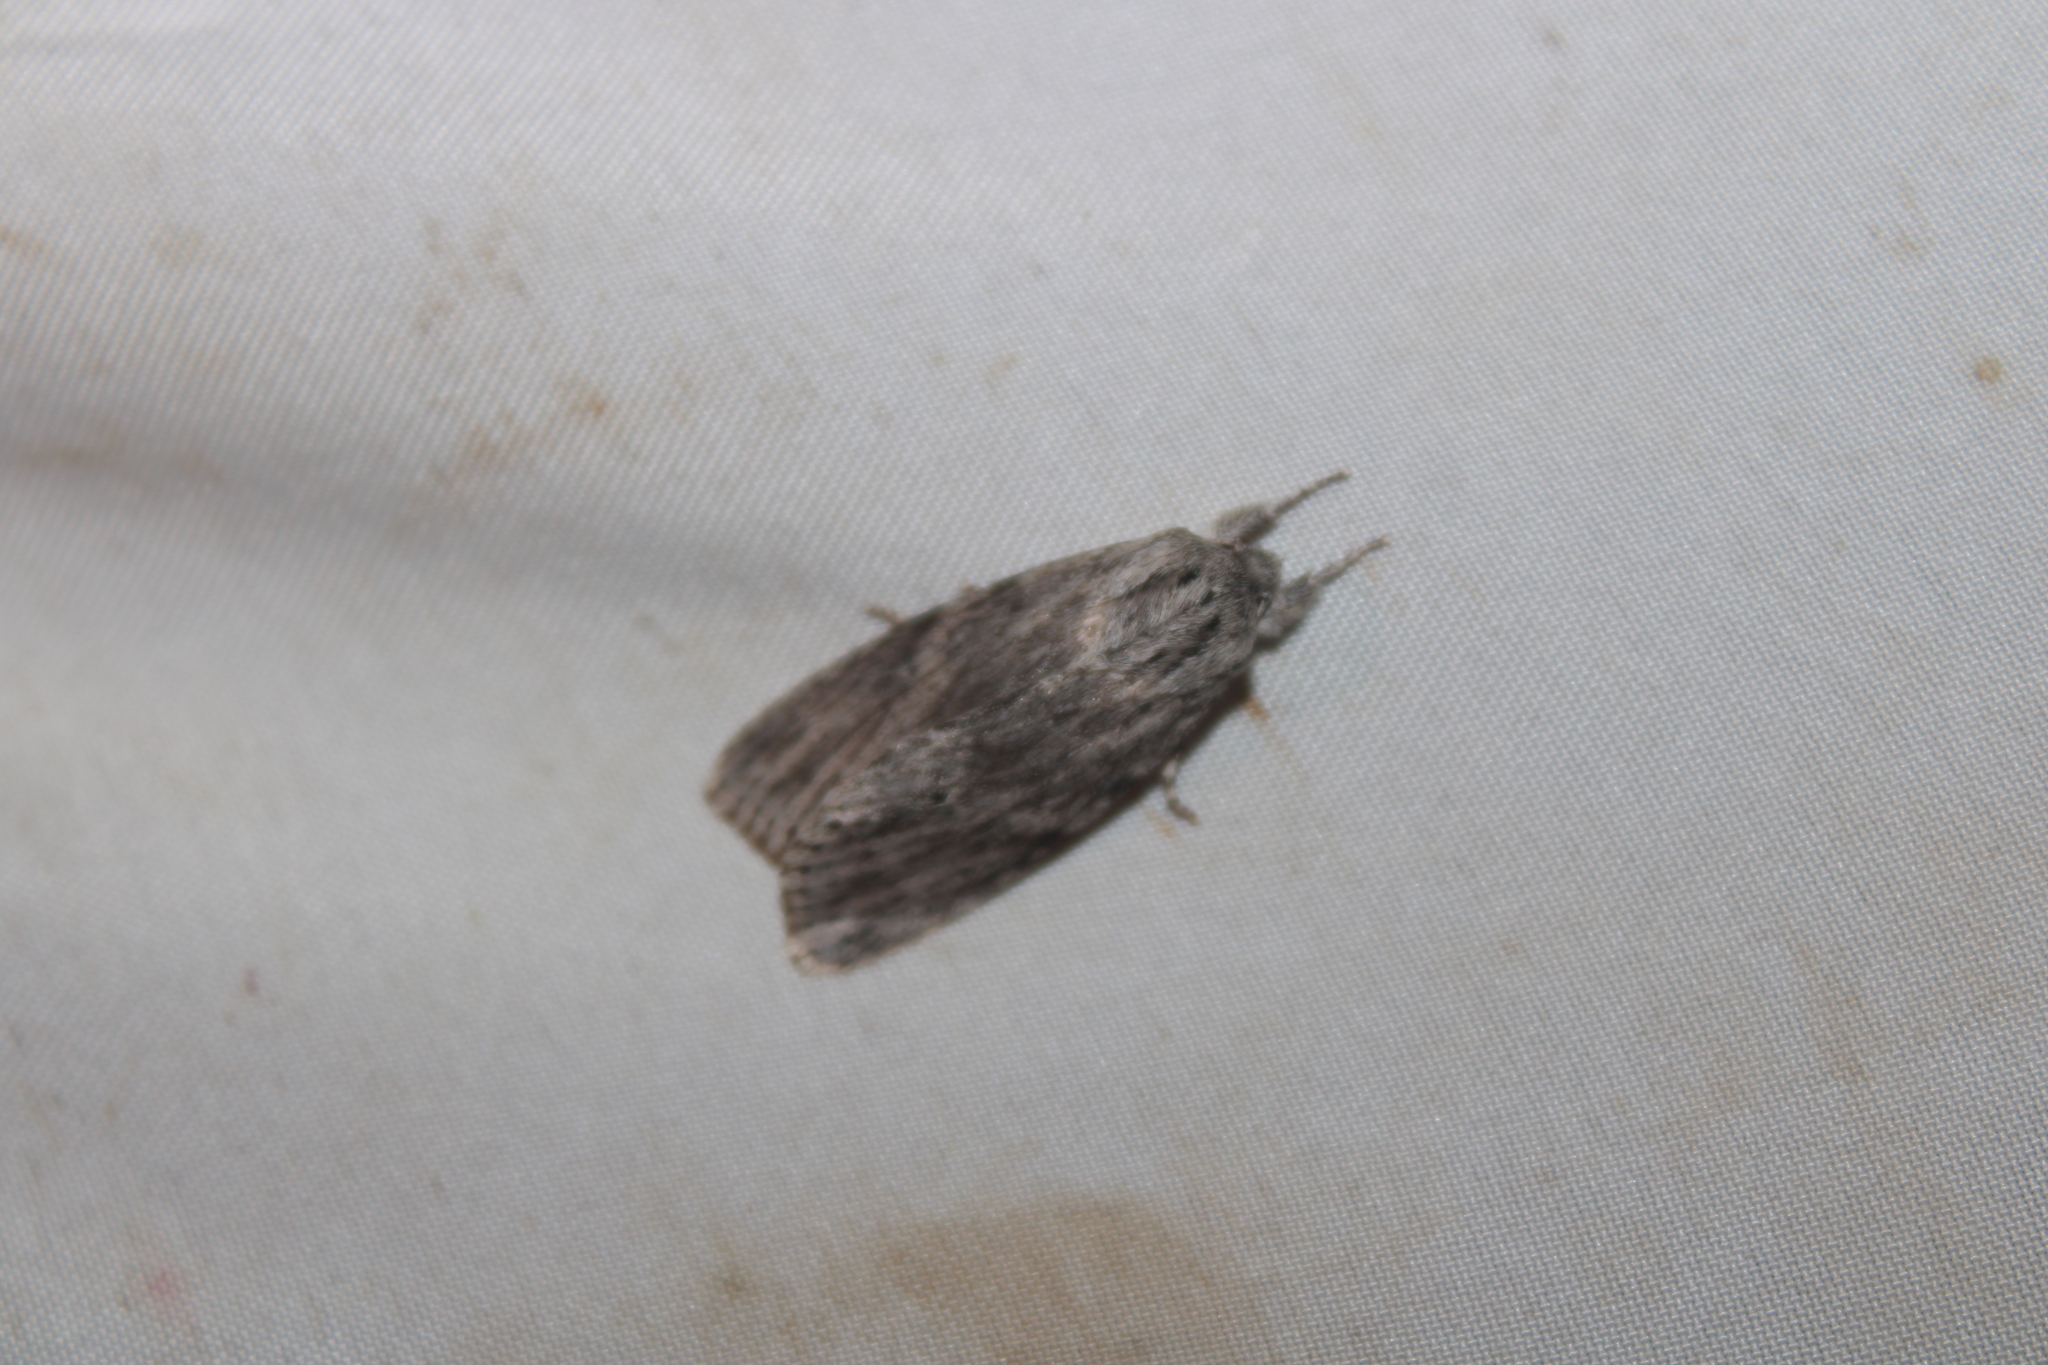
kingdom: Animalia
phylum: Arthropoda
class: Insecta
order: Lepidoptera
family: Noctuidae
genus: Acronicta
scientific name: Acronicta oblinita
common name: Smeared dagger
